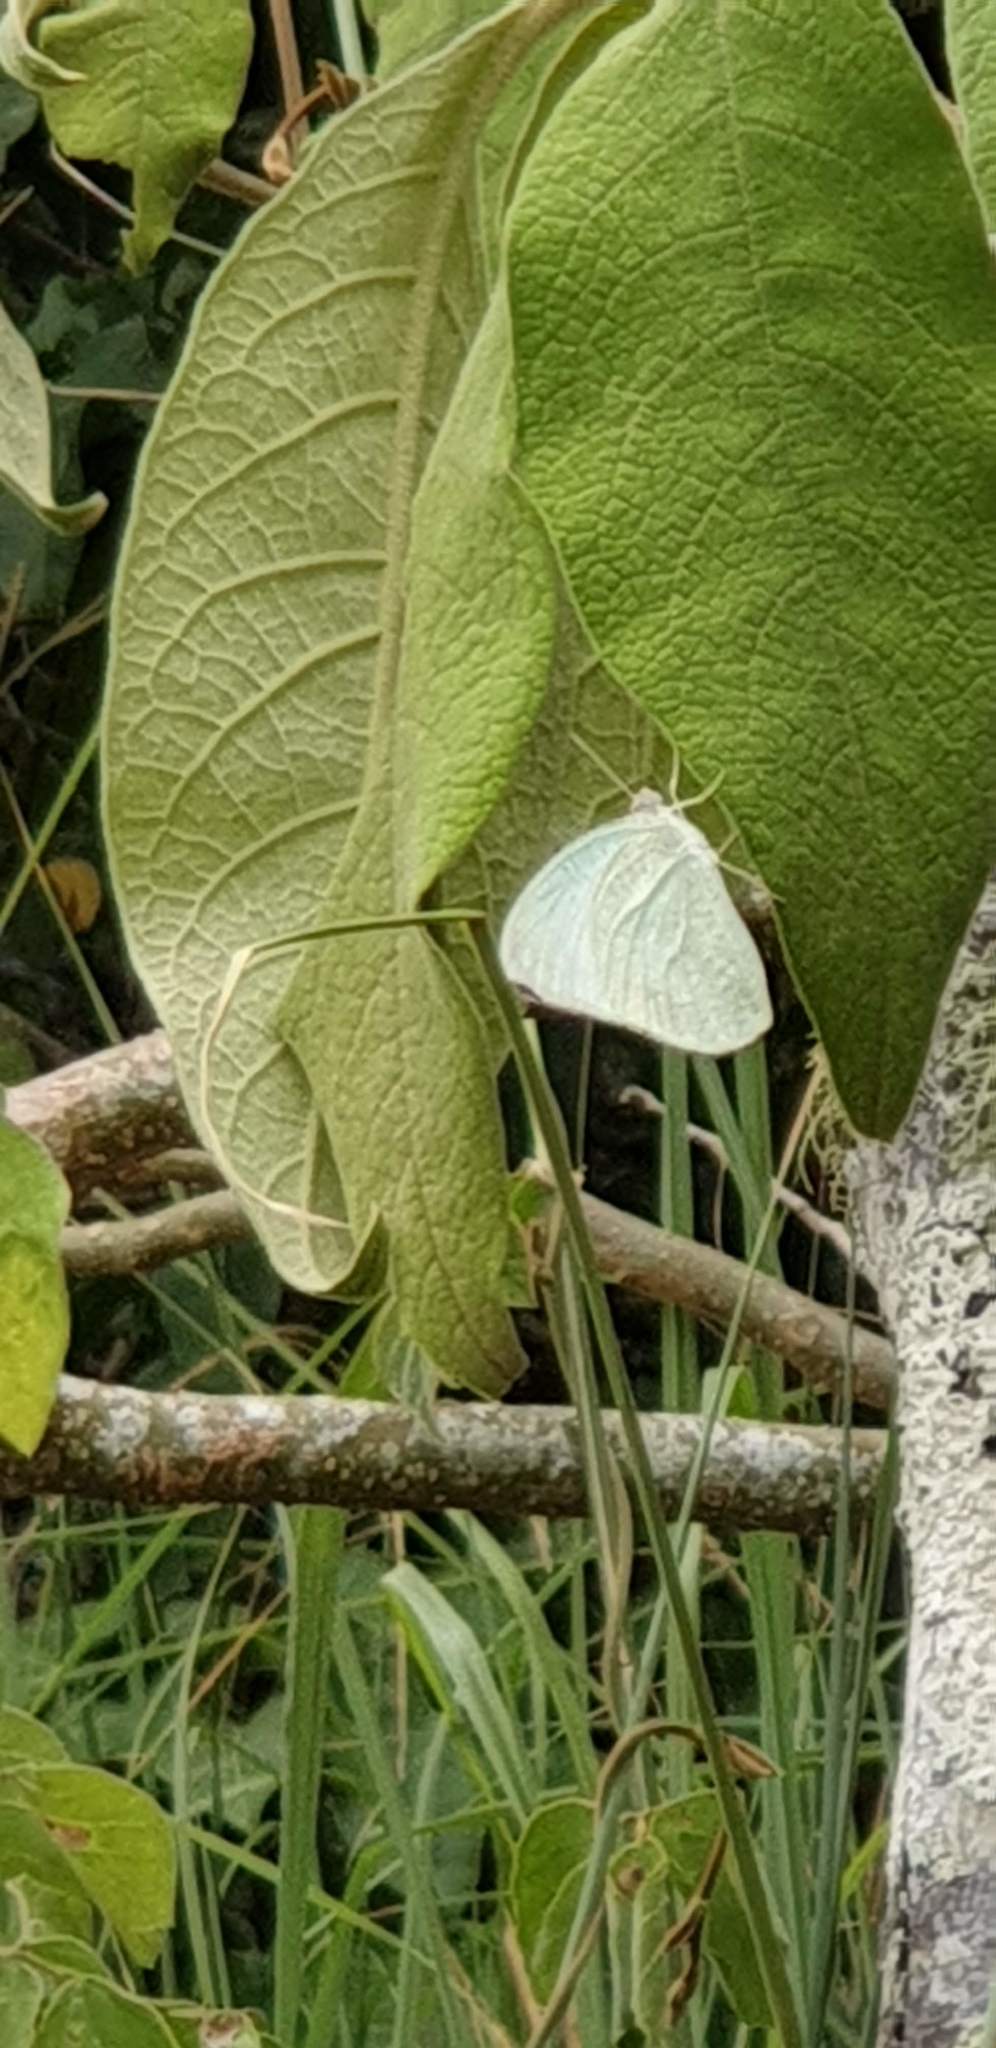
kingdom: Animalia
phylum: Arthropoda
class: Insecta
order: Lepidoptera
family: Pieridae
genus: Catopsilia
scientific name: Catopsilia pyranthe
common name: Mottled emigrant
